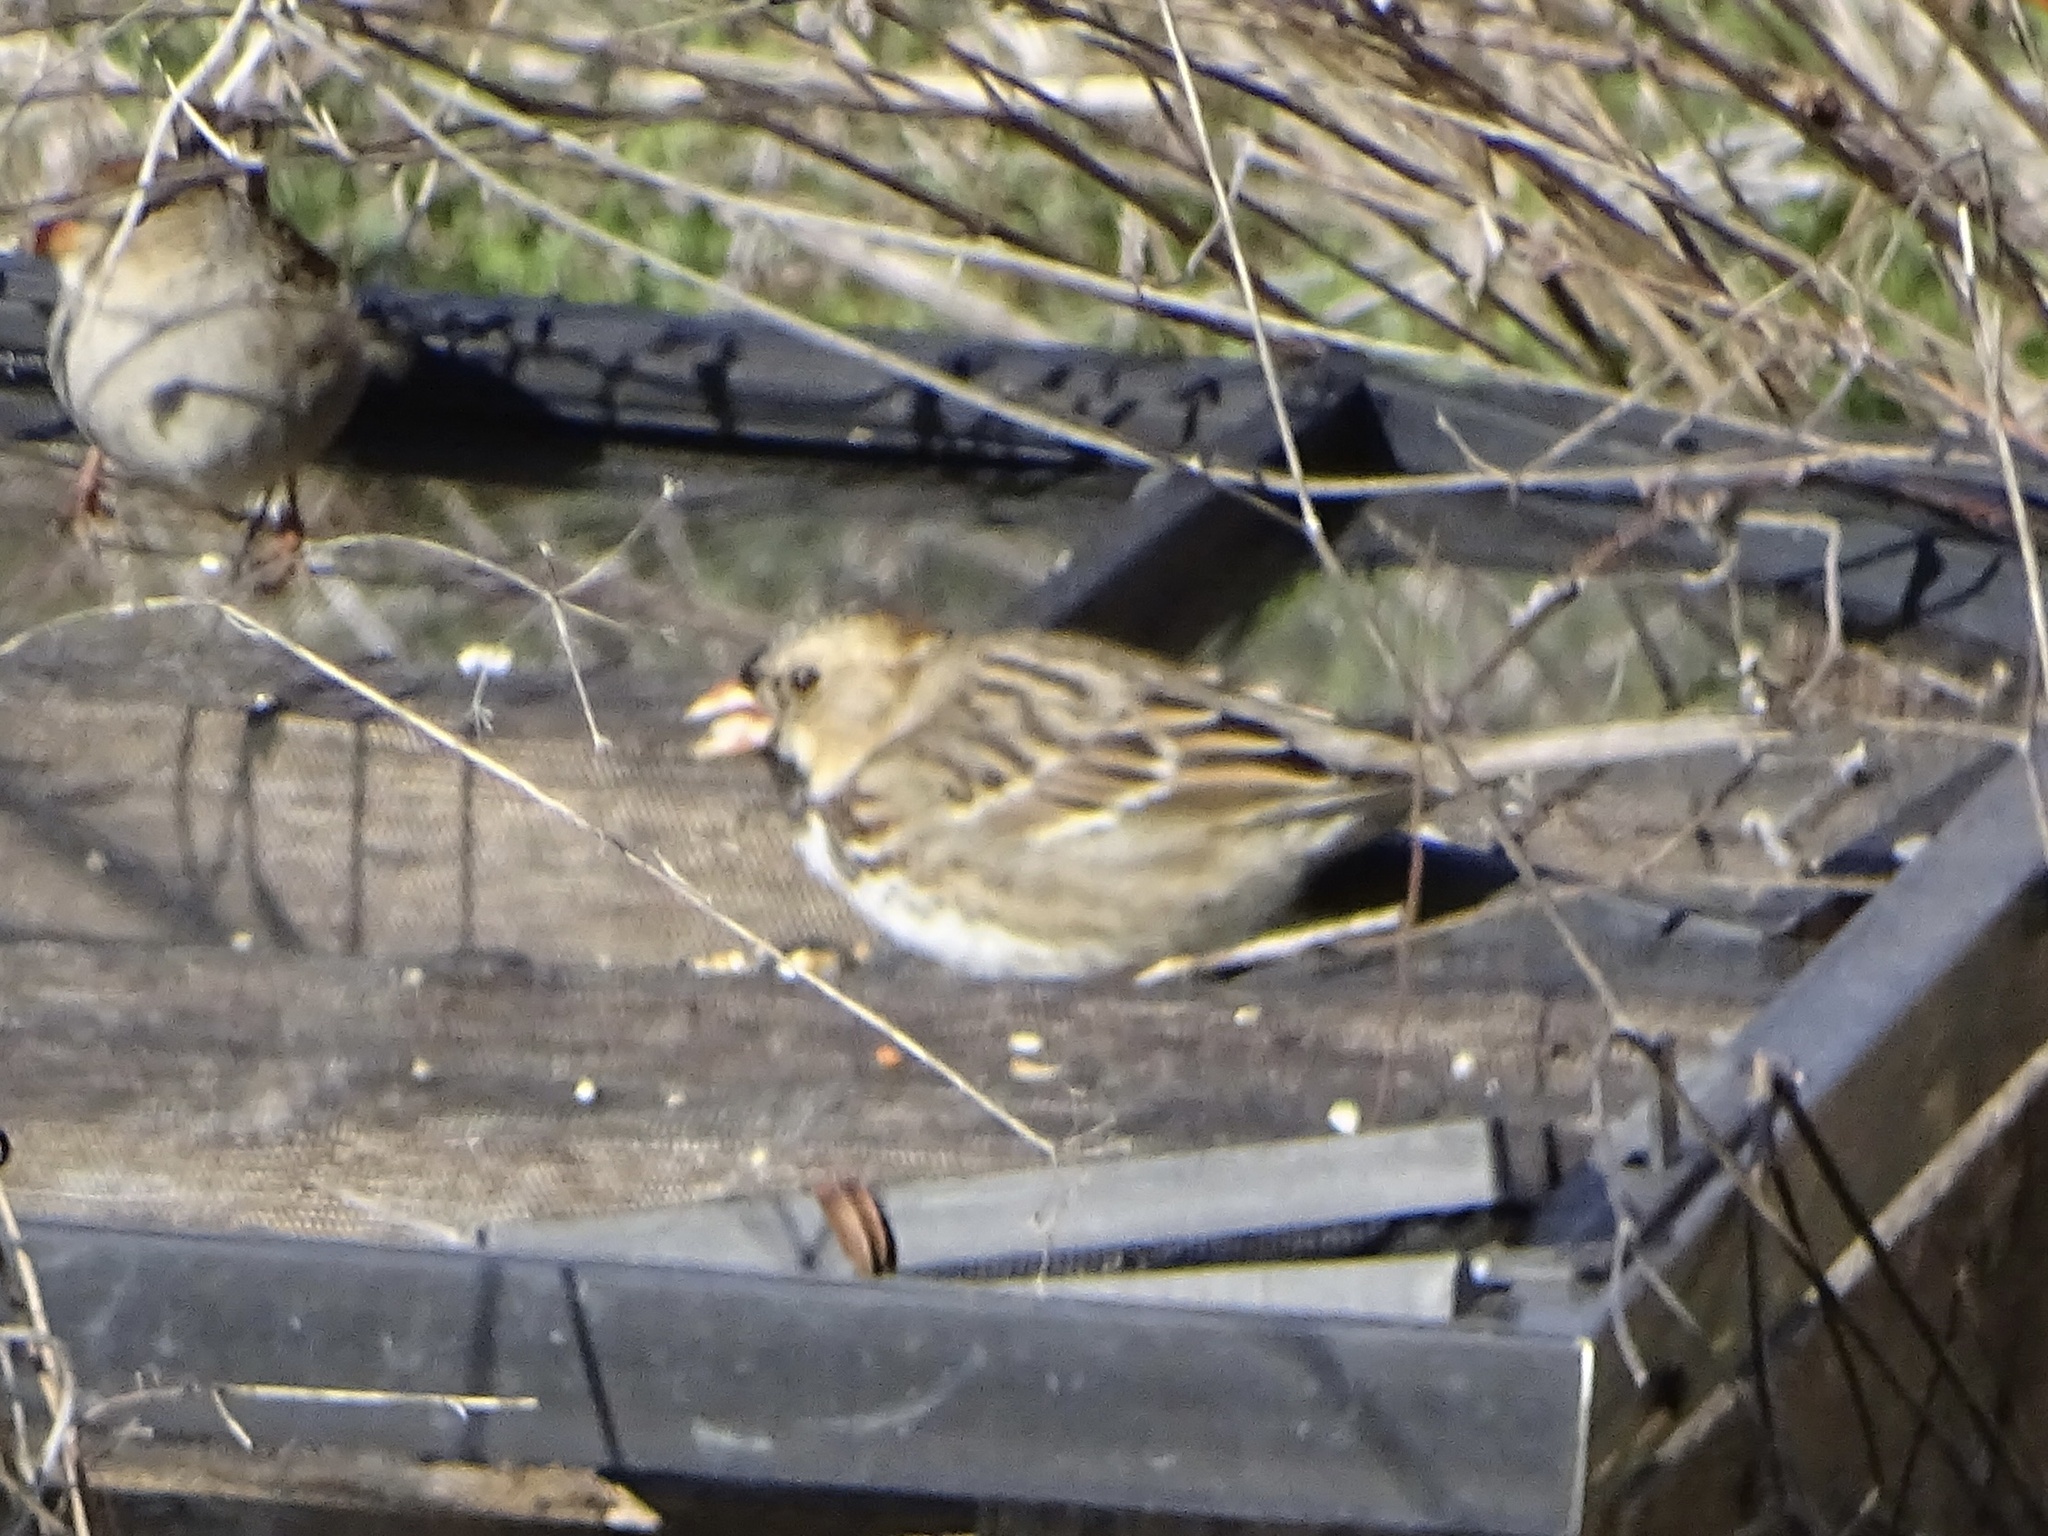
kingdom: Animalia
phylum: Chordata
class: Aves
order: Passeriformes
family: Passerellidae
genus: Zonotrichia
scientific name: Zonotrichia querula
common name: Harris's sparrow
